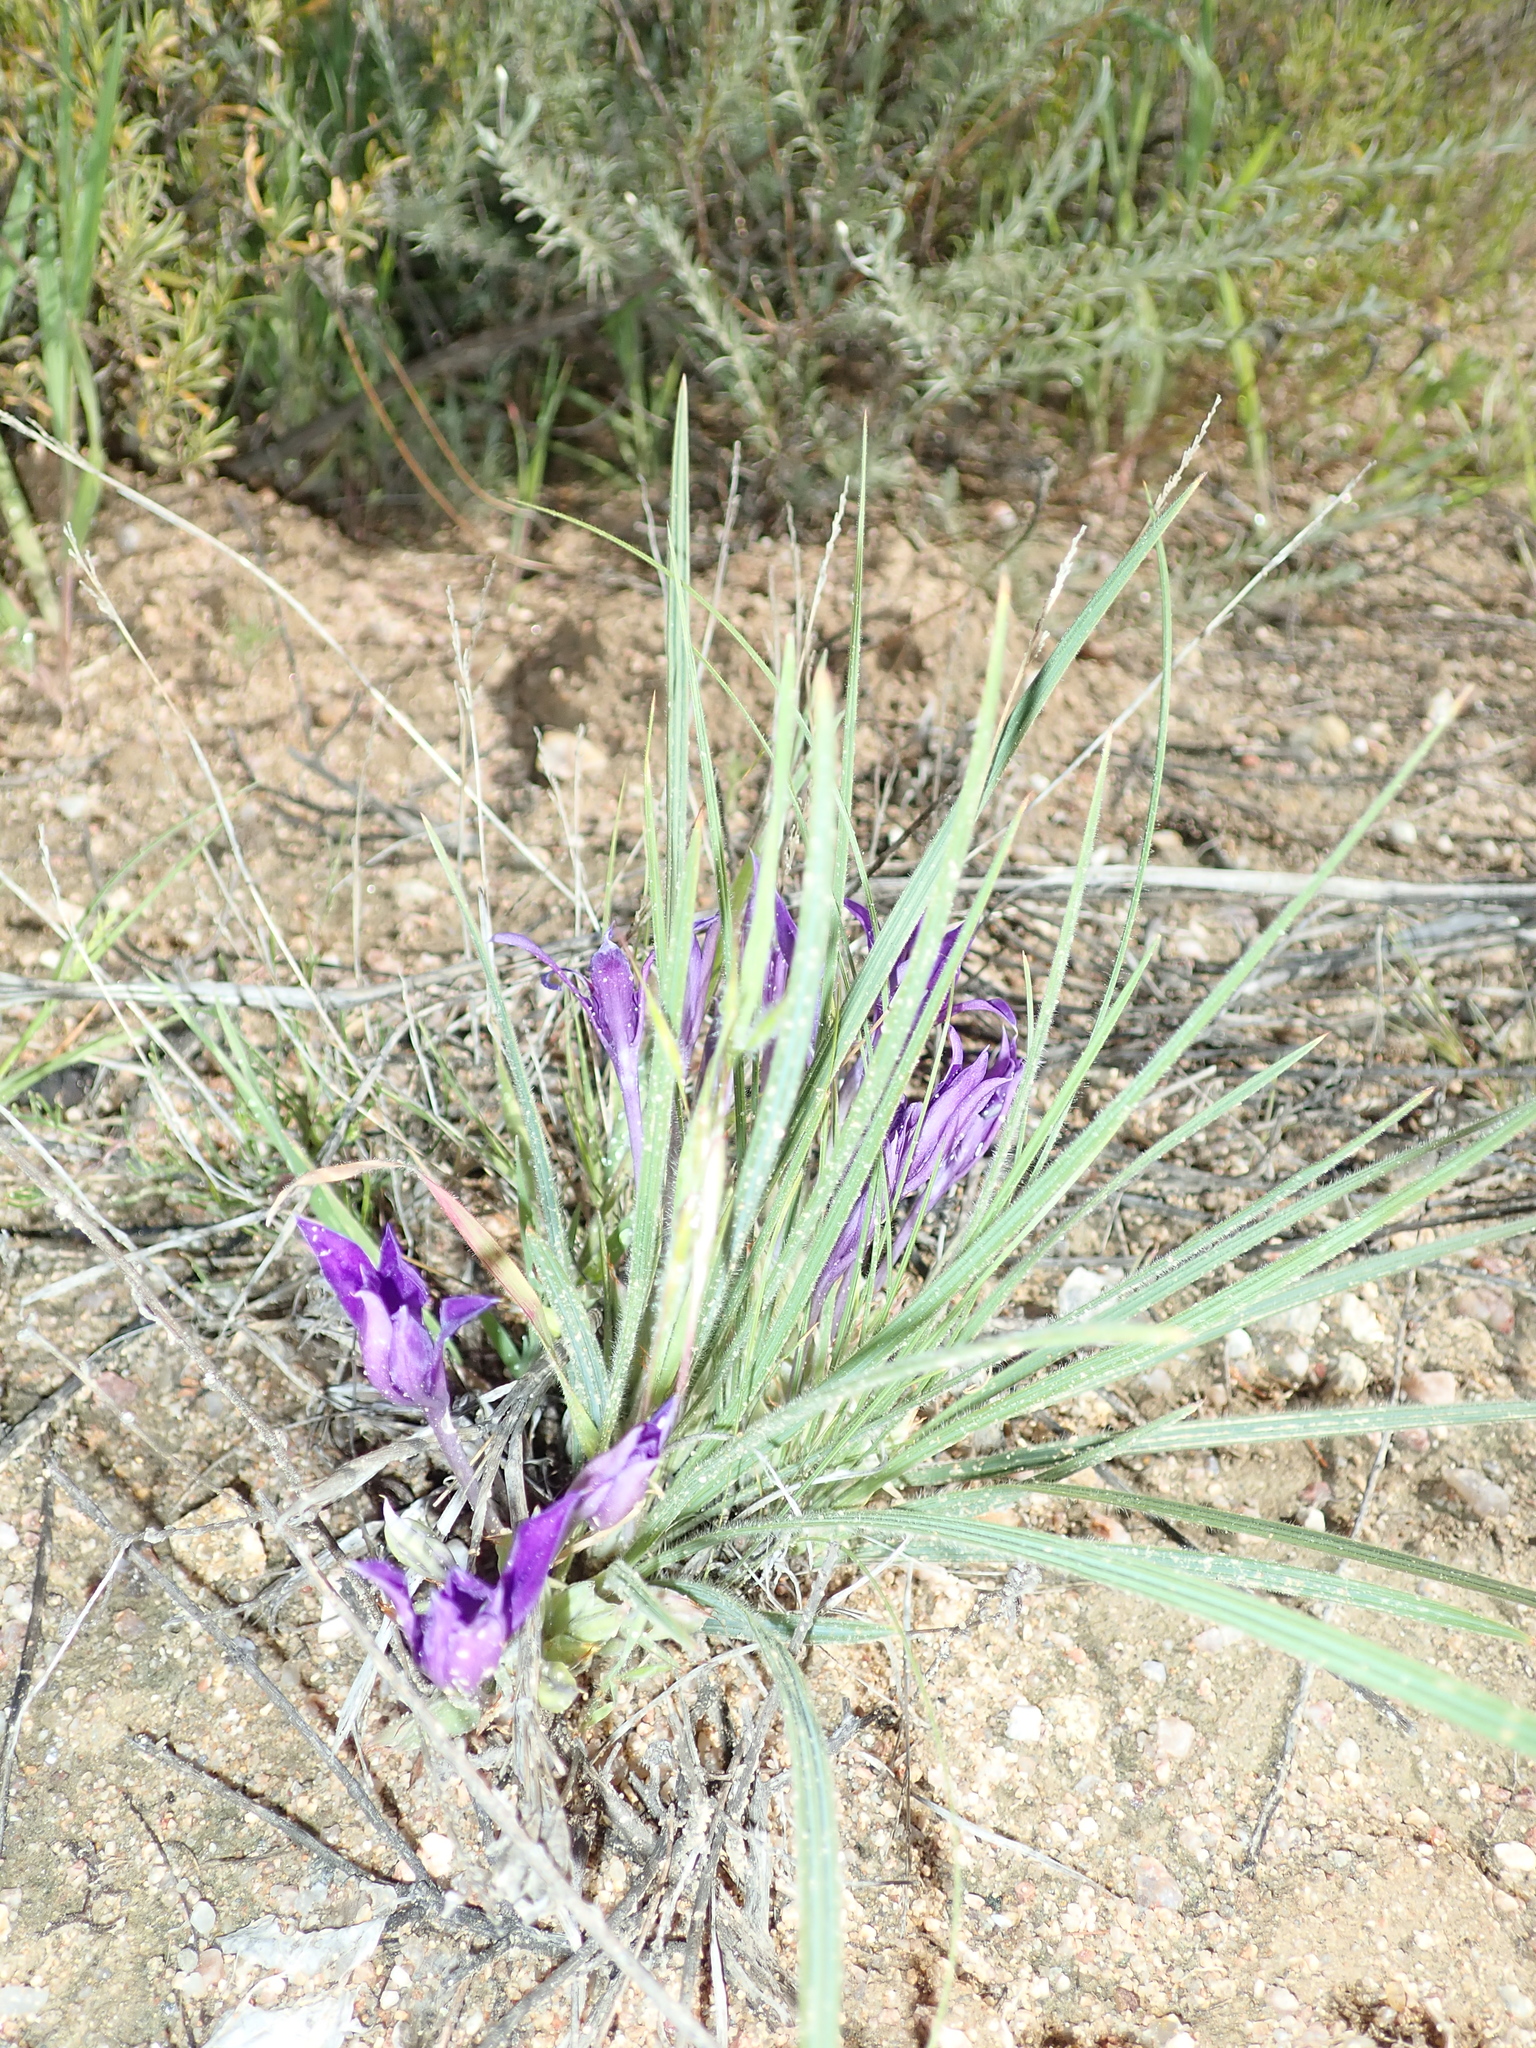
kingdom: Plantae
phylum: Tracheophyta
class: Liliopsida
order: Asparagales
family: Iridaceae
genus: Babiana
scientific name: Babiana dregei
